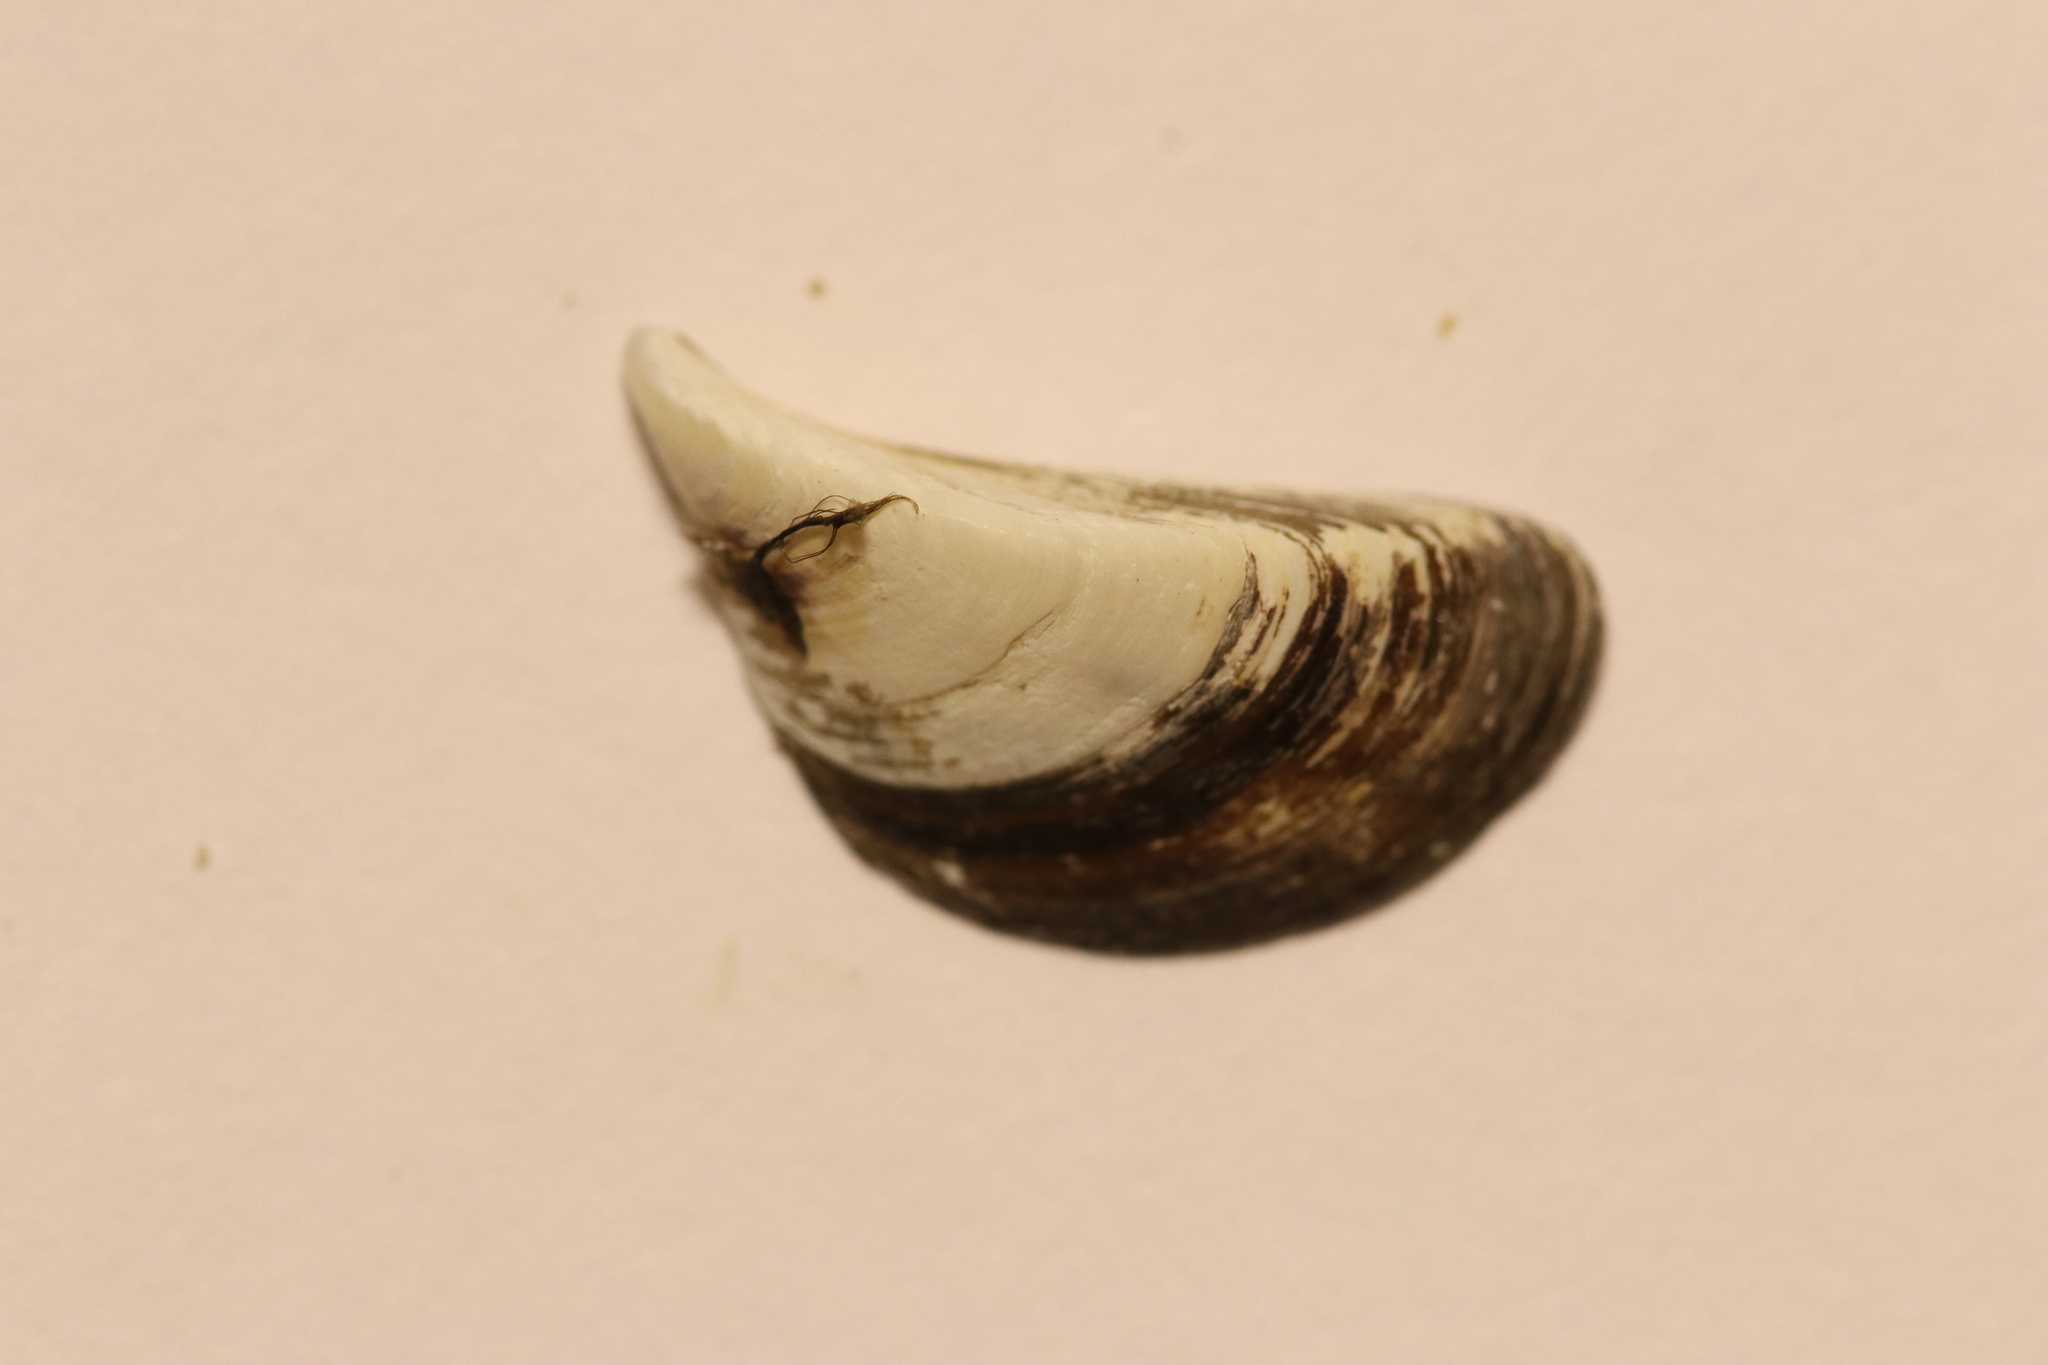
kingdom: Animalia
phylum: Mollusca
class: Bivalvia
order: Myida
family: Dreissenidae
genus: Dreissena
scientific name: Dreissena polymorpha
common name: Zebra mussel
